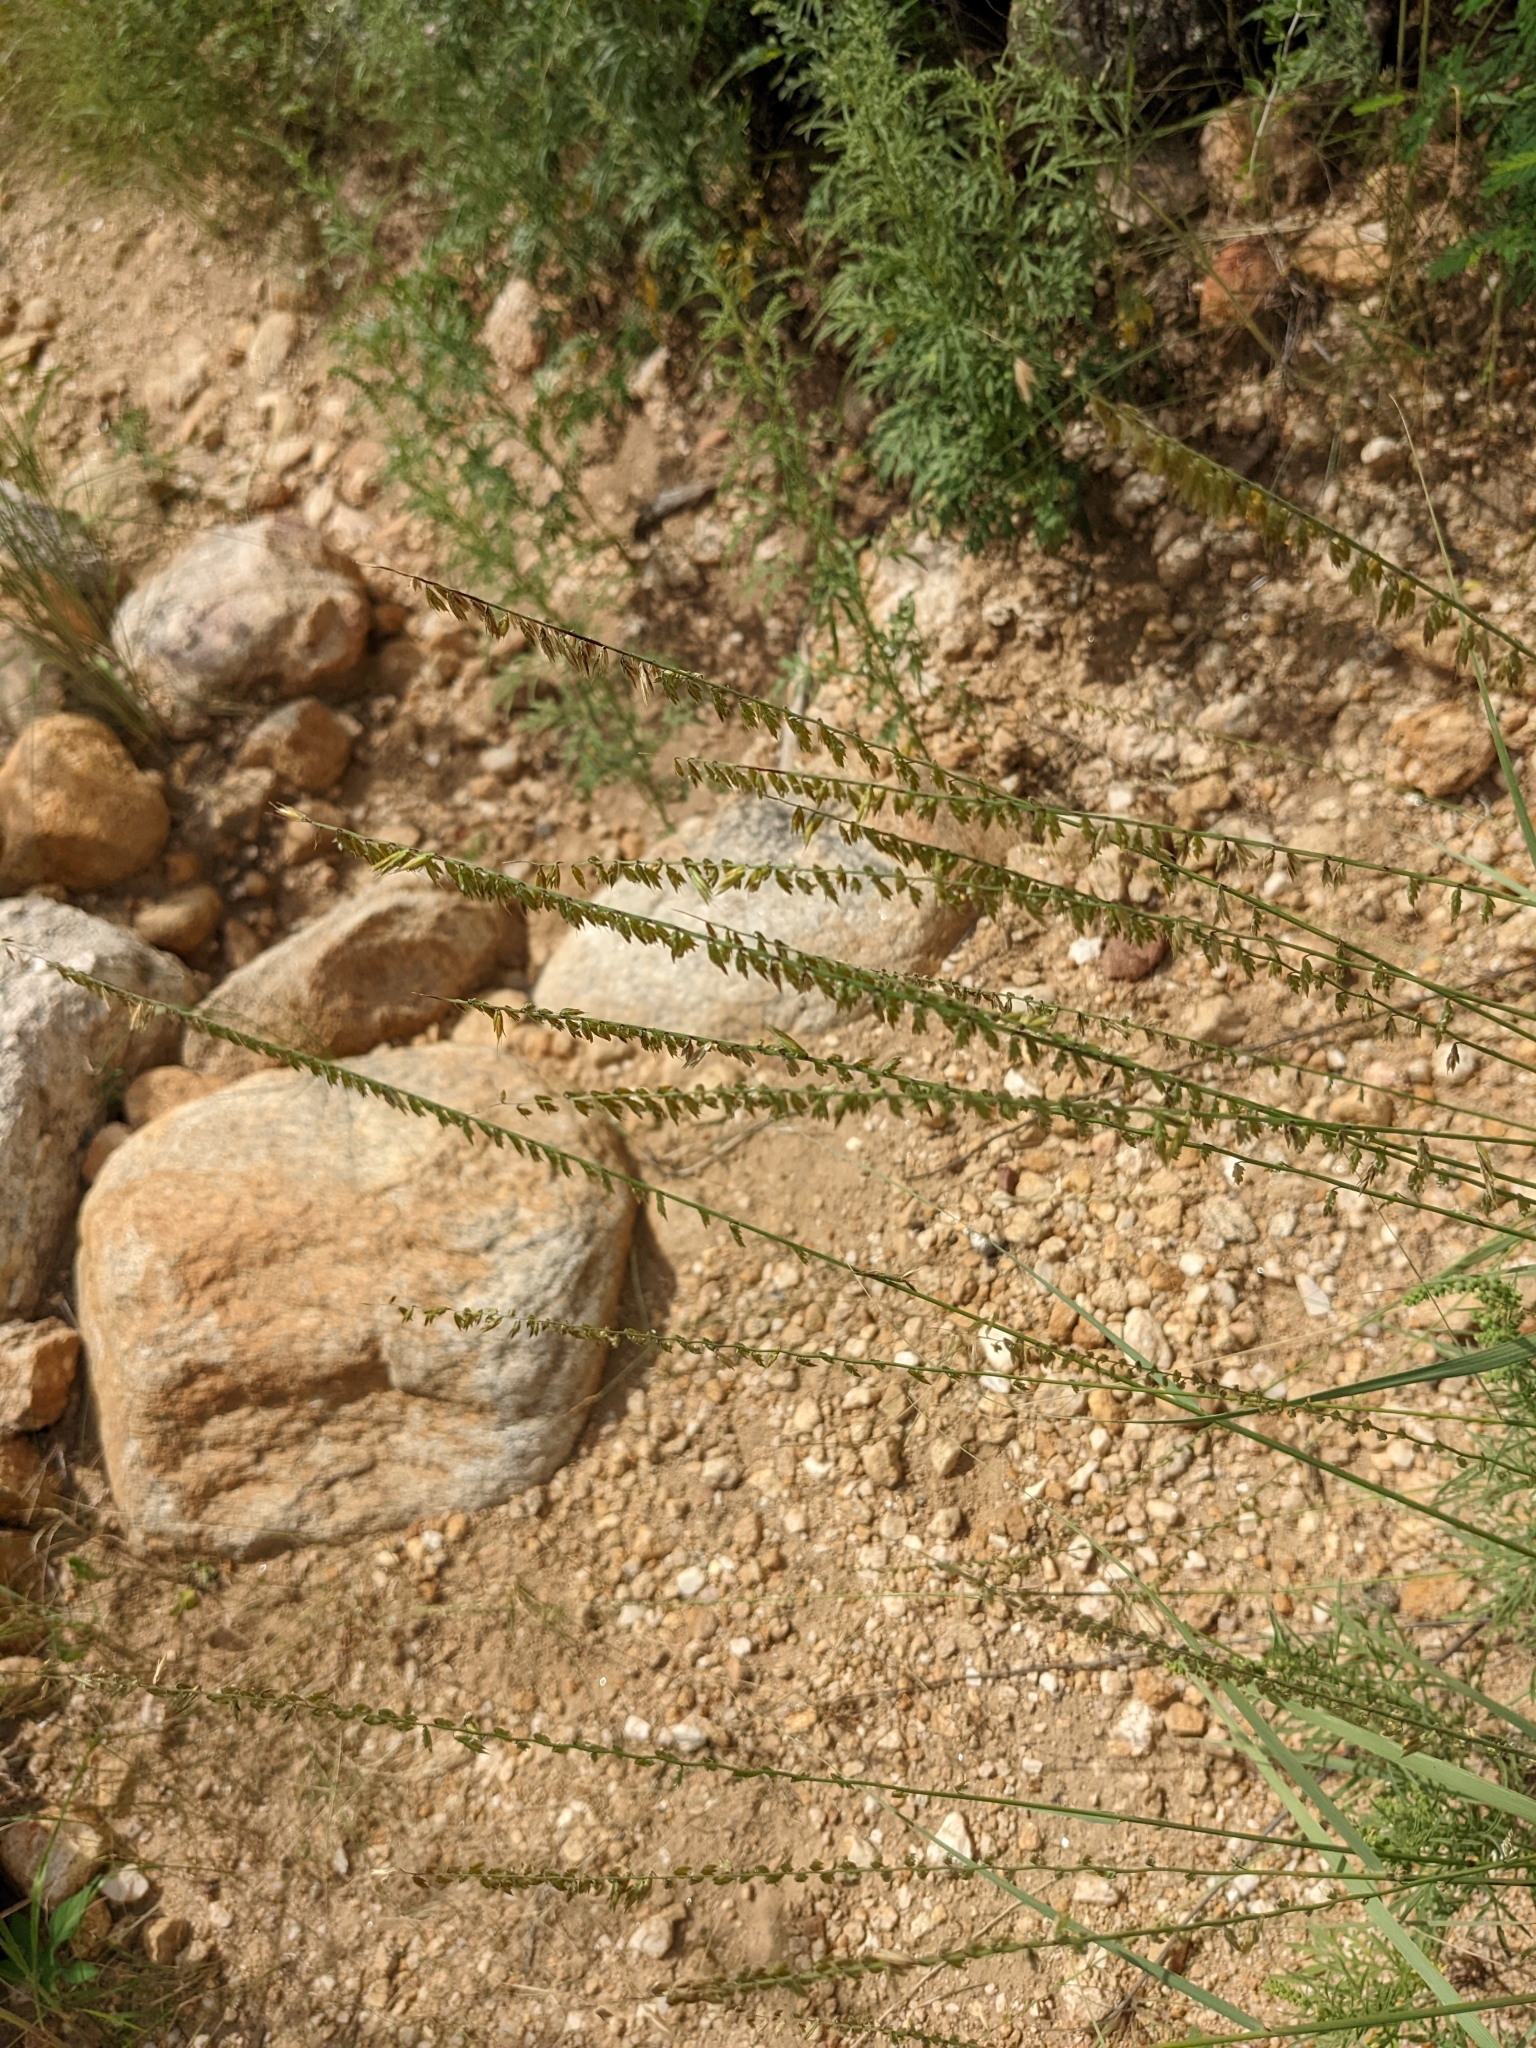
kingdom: Plantae
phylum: Tracheophyta
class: Liliopsida
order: Poales
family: Poaceae
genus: Bouteloua
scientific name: Bouteloua curtipendula
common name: Side-oats grama
